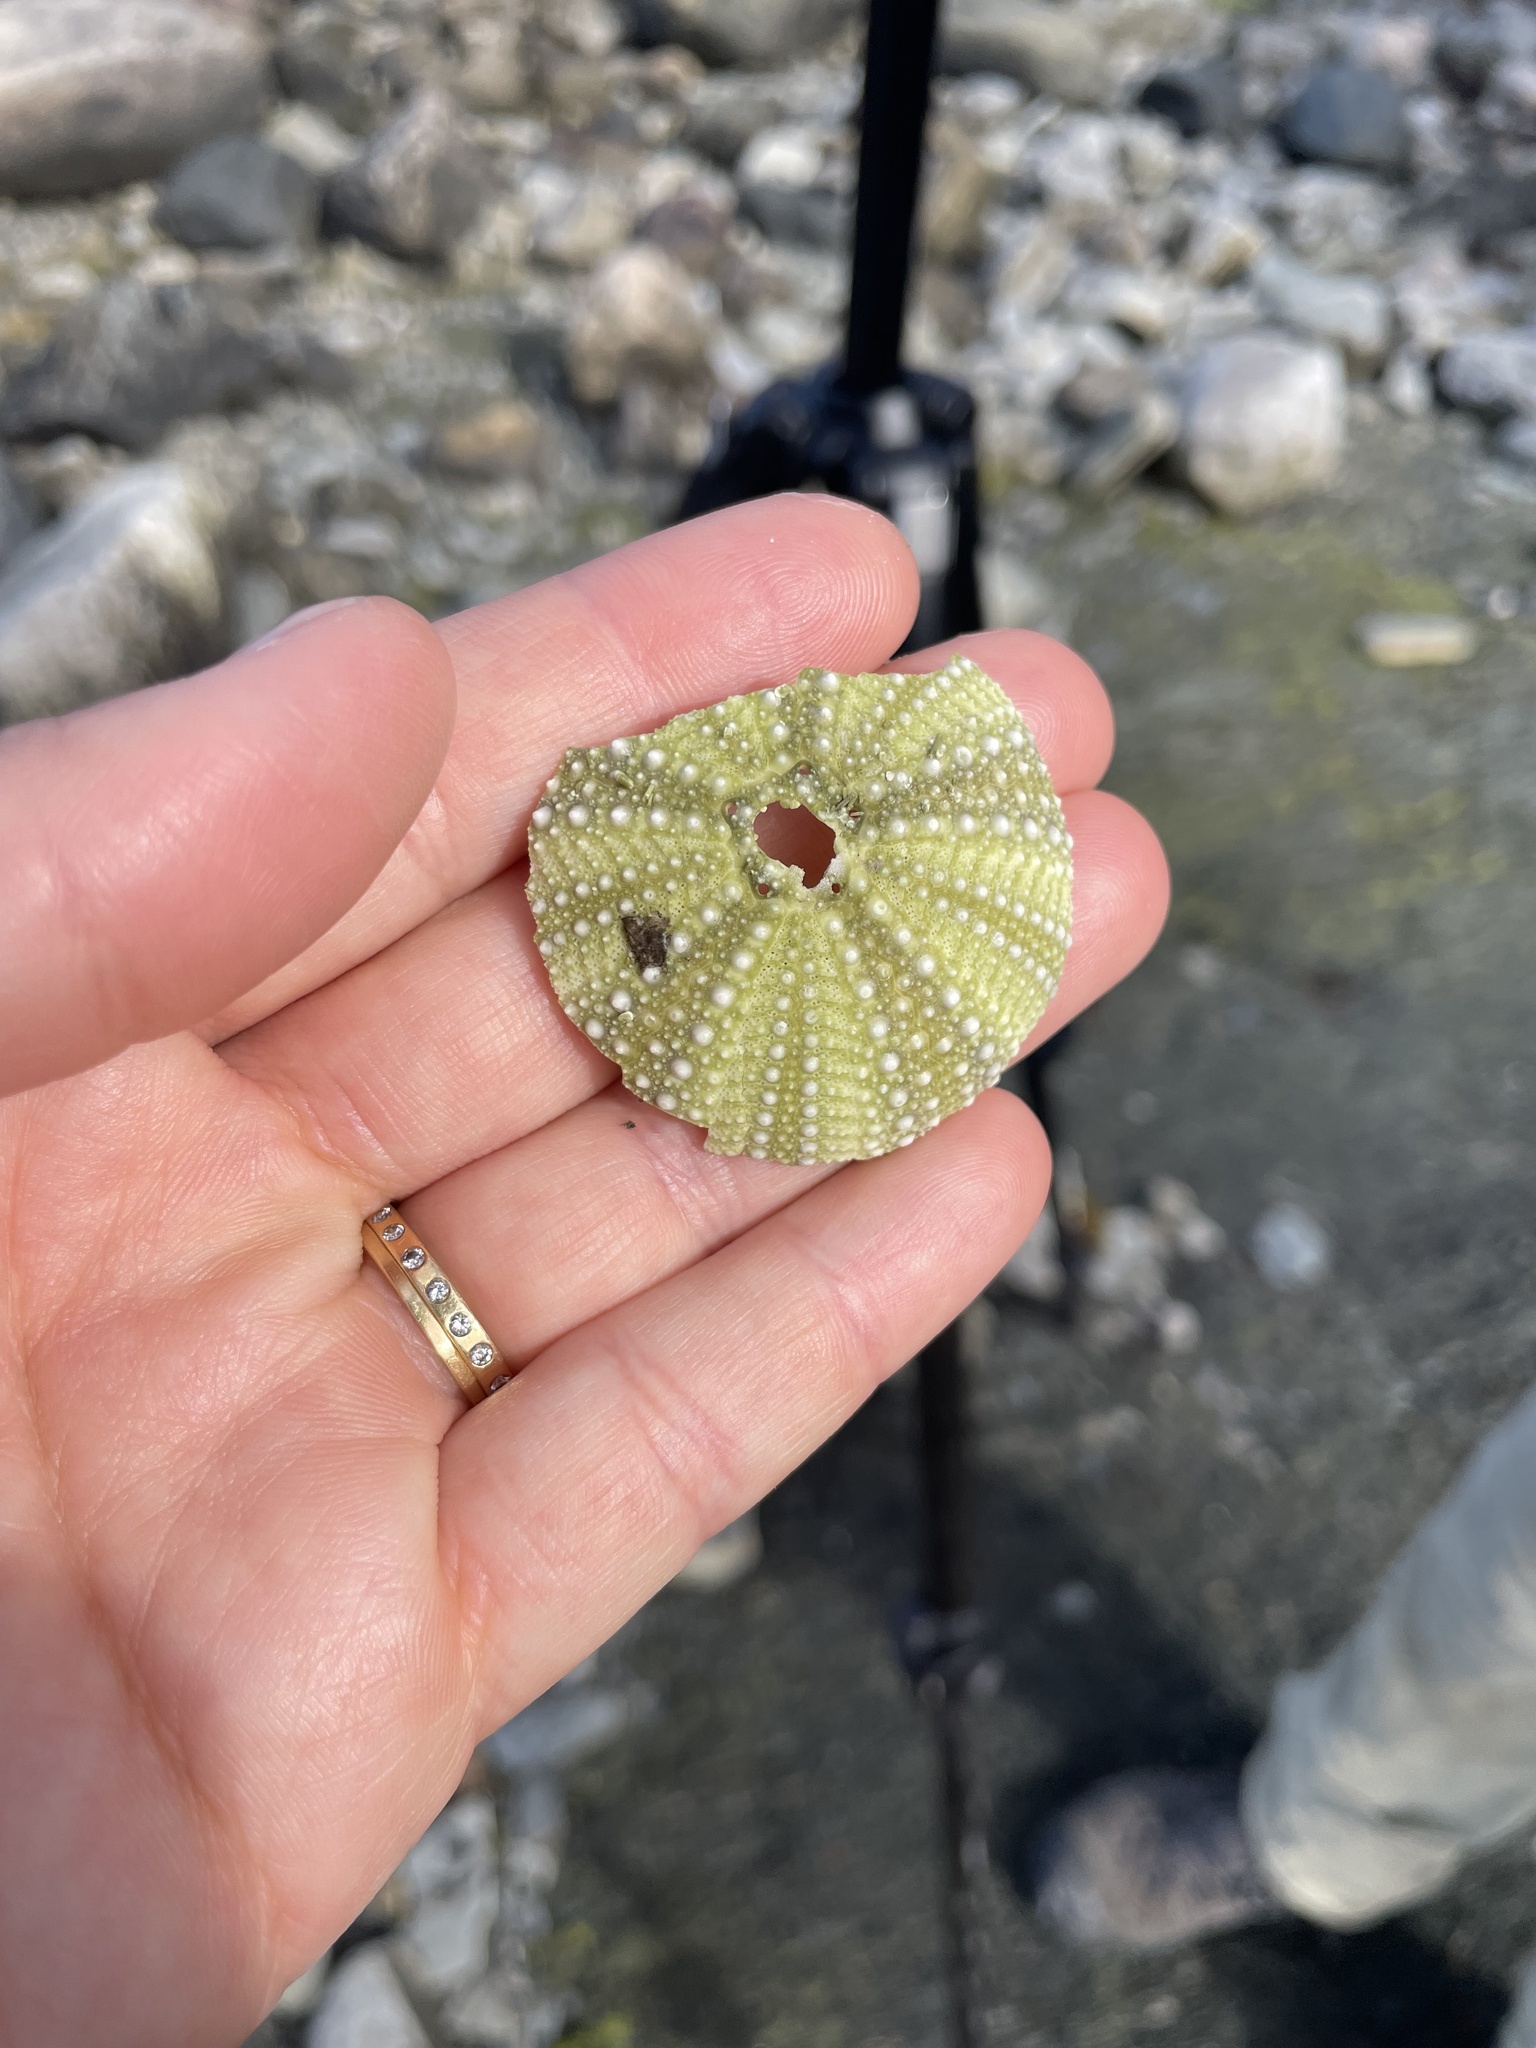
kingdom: Animalia
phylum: Echinodermata
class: Echinoidea
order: Camarodonta
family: Strongylocentrotidae
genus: Strongylocentrotus
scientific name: Strongylocentrotus droebachiensis
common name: Northern sea urchin
